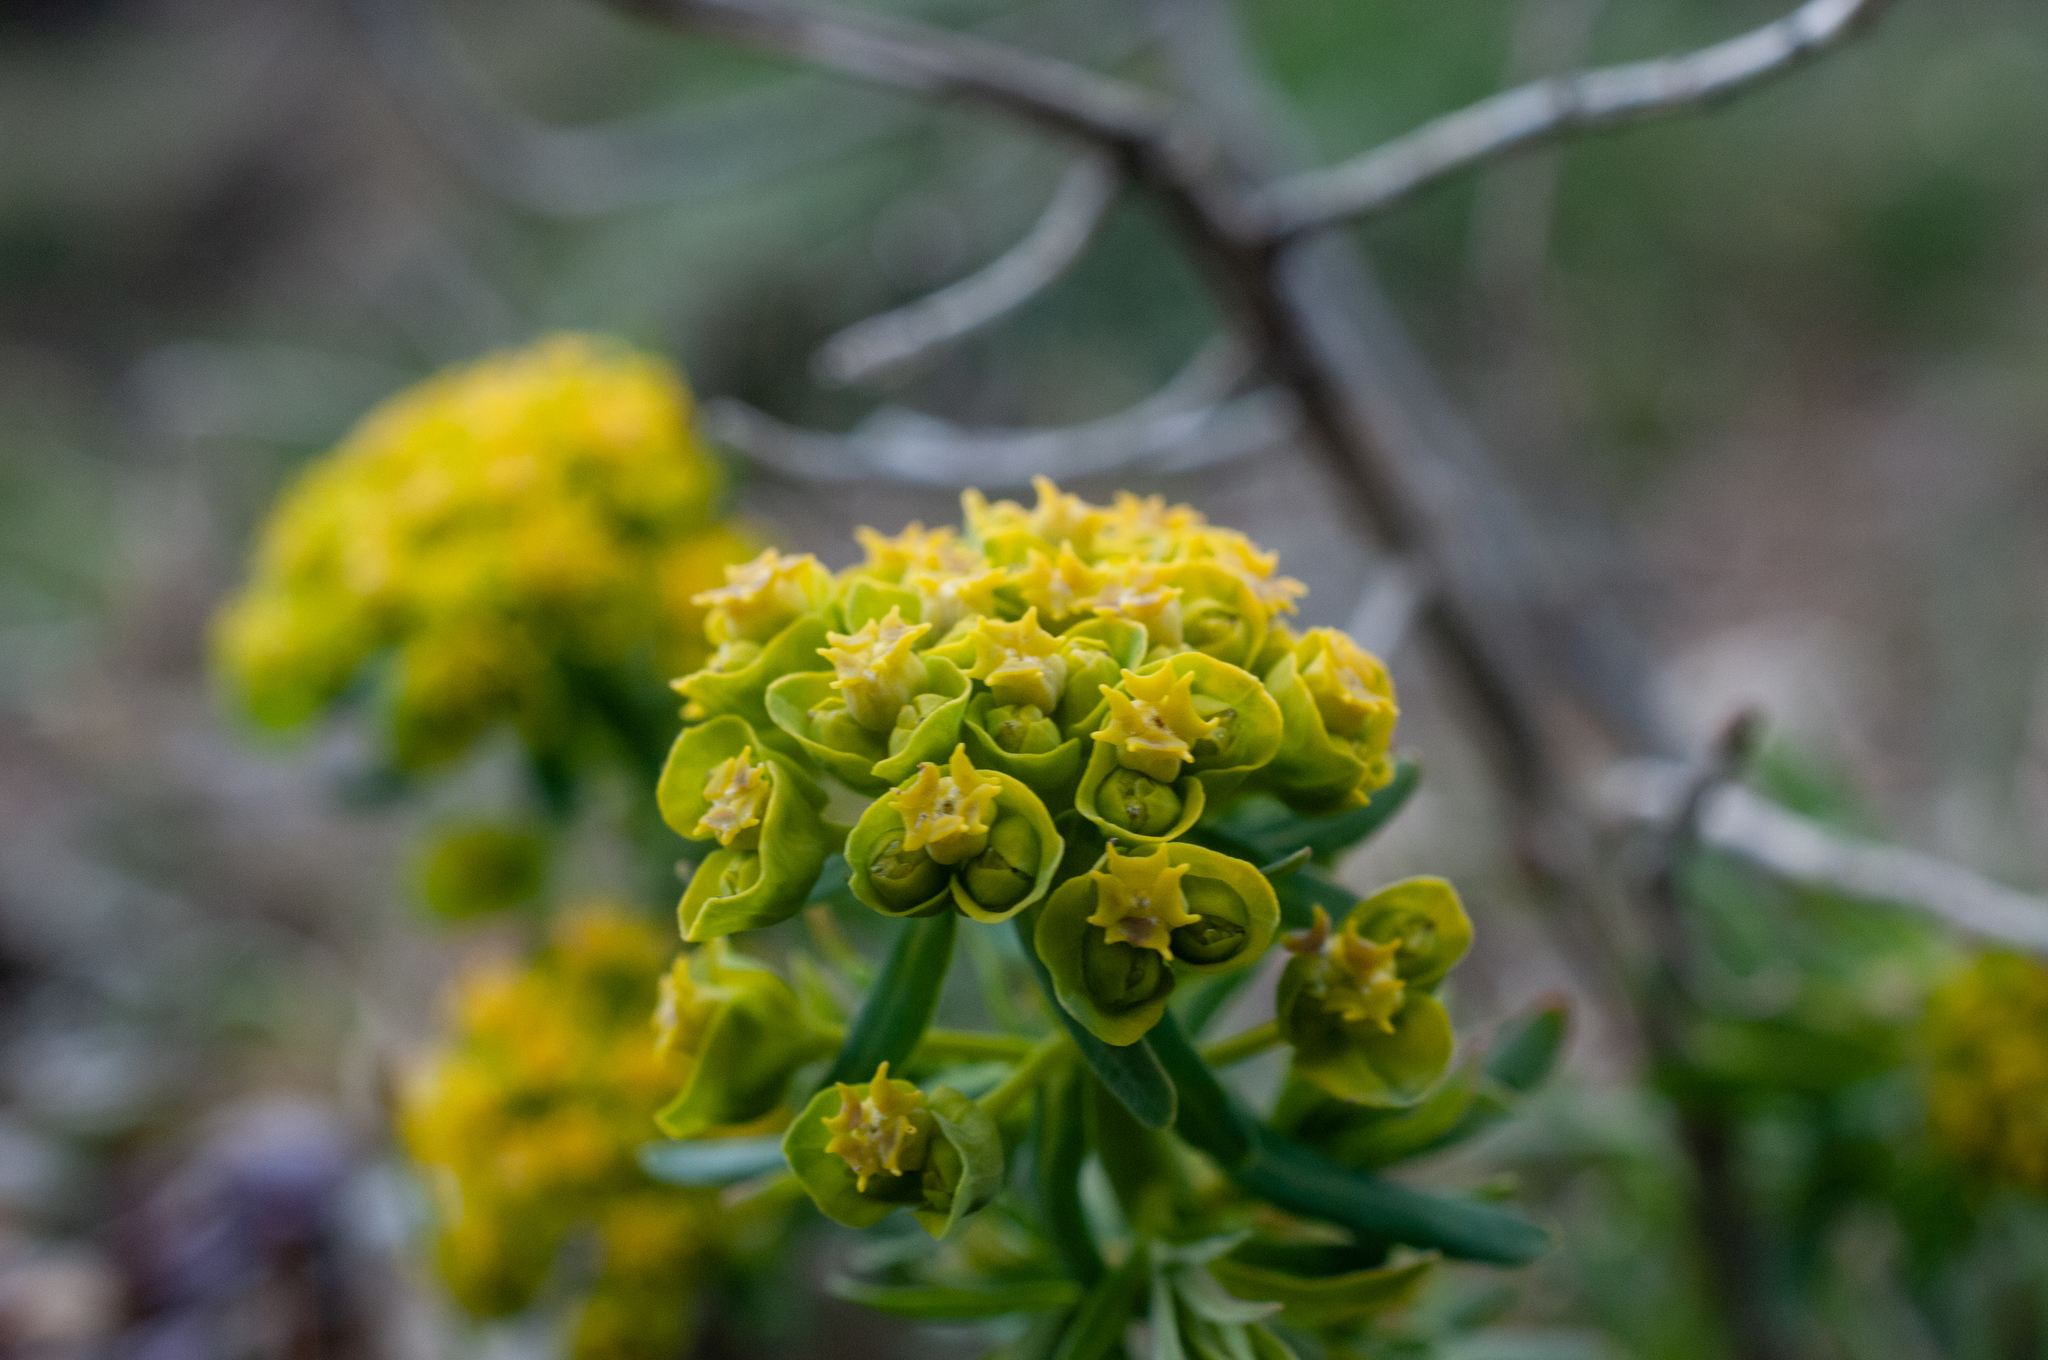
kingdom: Plantae
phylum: Tracheophyta
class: Magnoliopsida
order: Malpighiales
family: Euphorbiaceae
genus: Euphorbia
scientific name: Euphorbia cyparissias
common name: Cypress spurge
